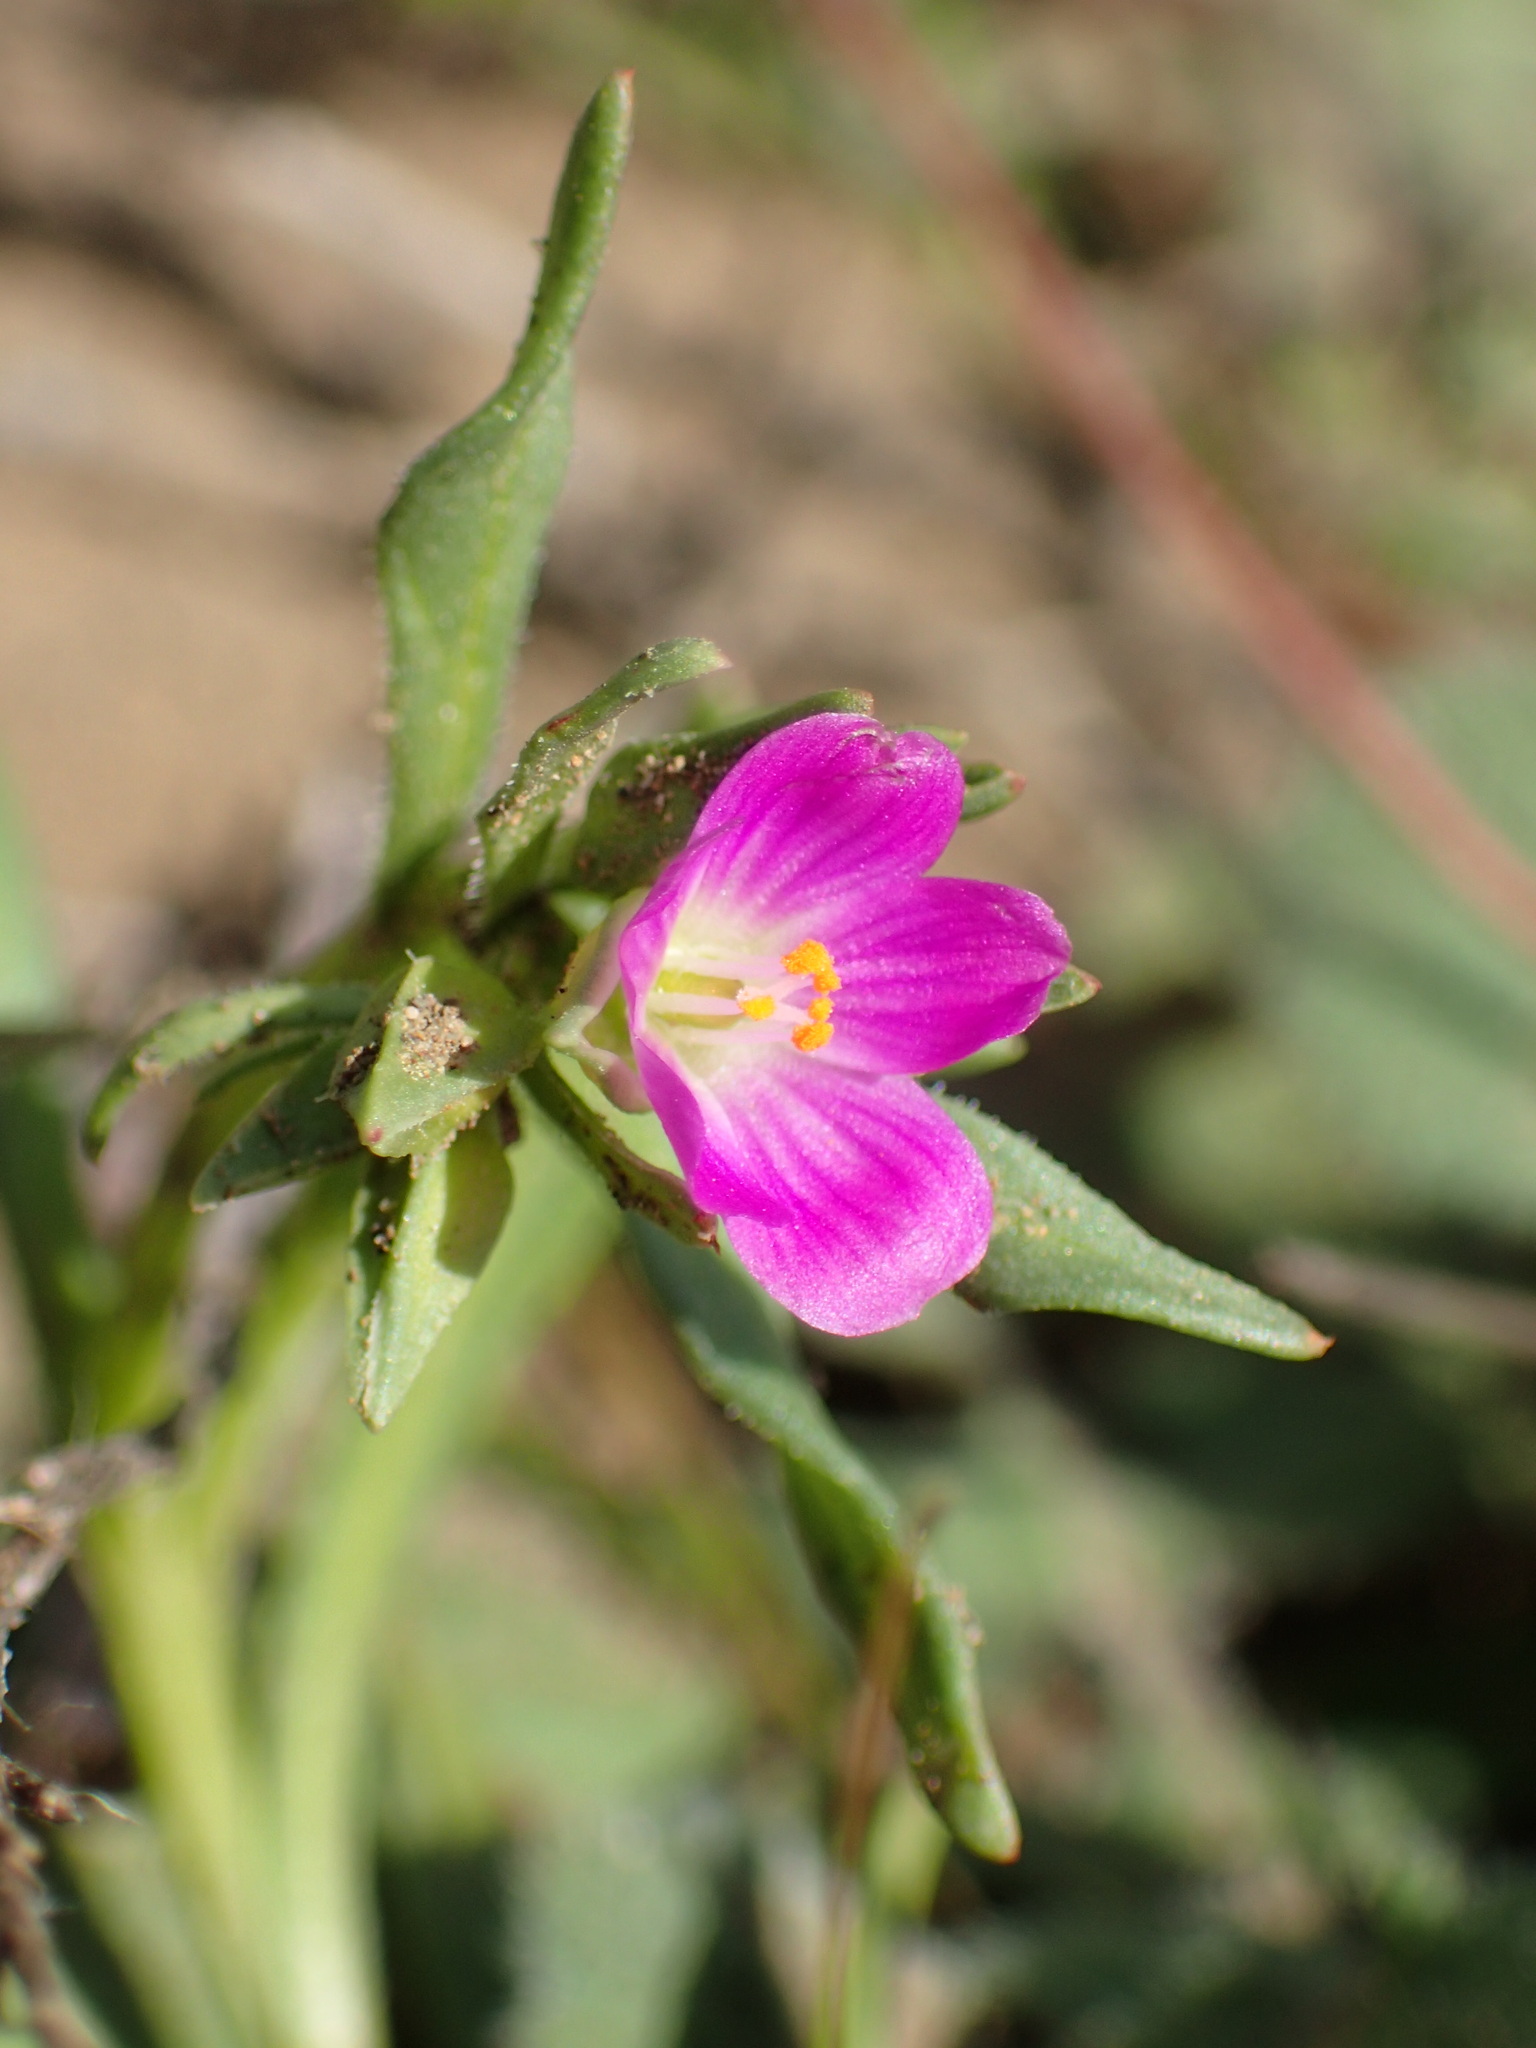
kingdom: Plantae
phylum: Tracheophyta
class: Magnoliopsida
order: Caryophyllales
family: Montiaceae
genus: Calandrinia
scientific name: Calandrinia menziesii
